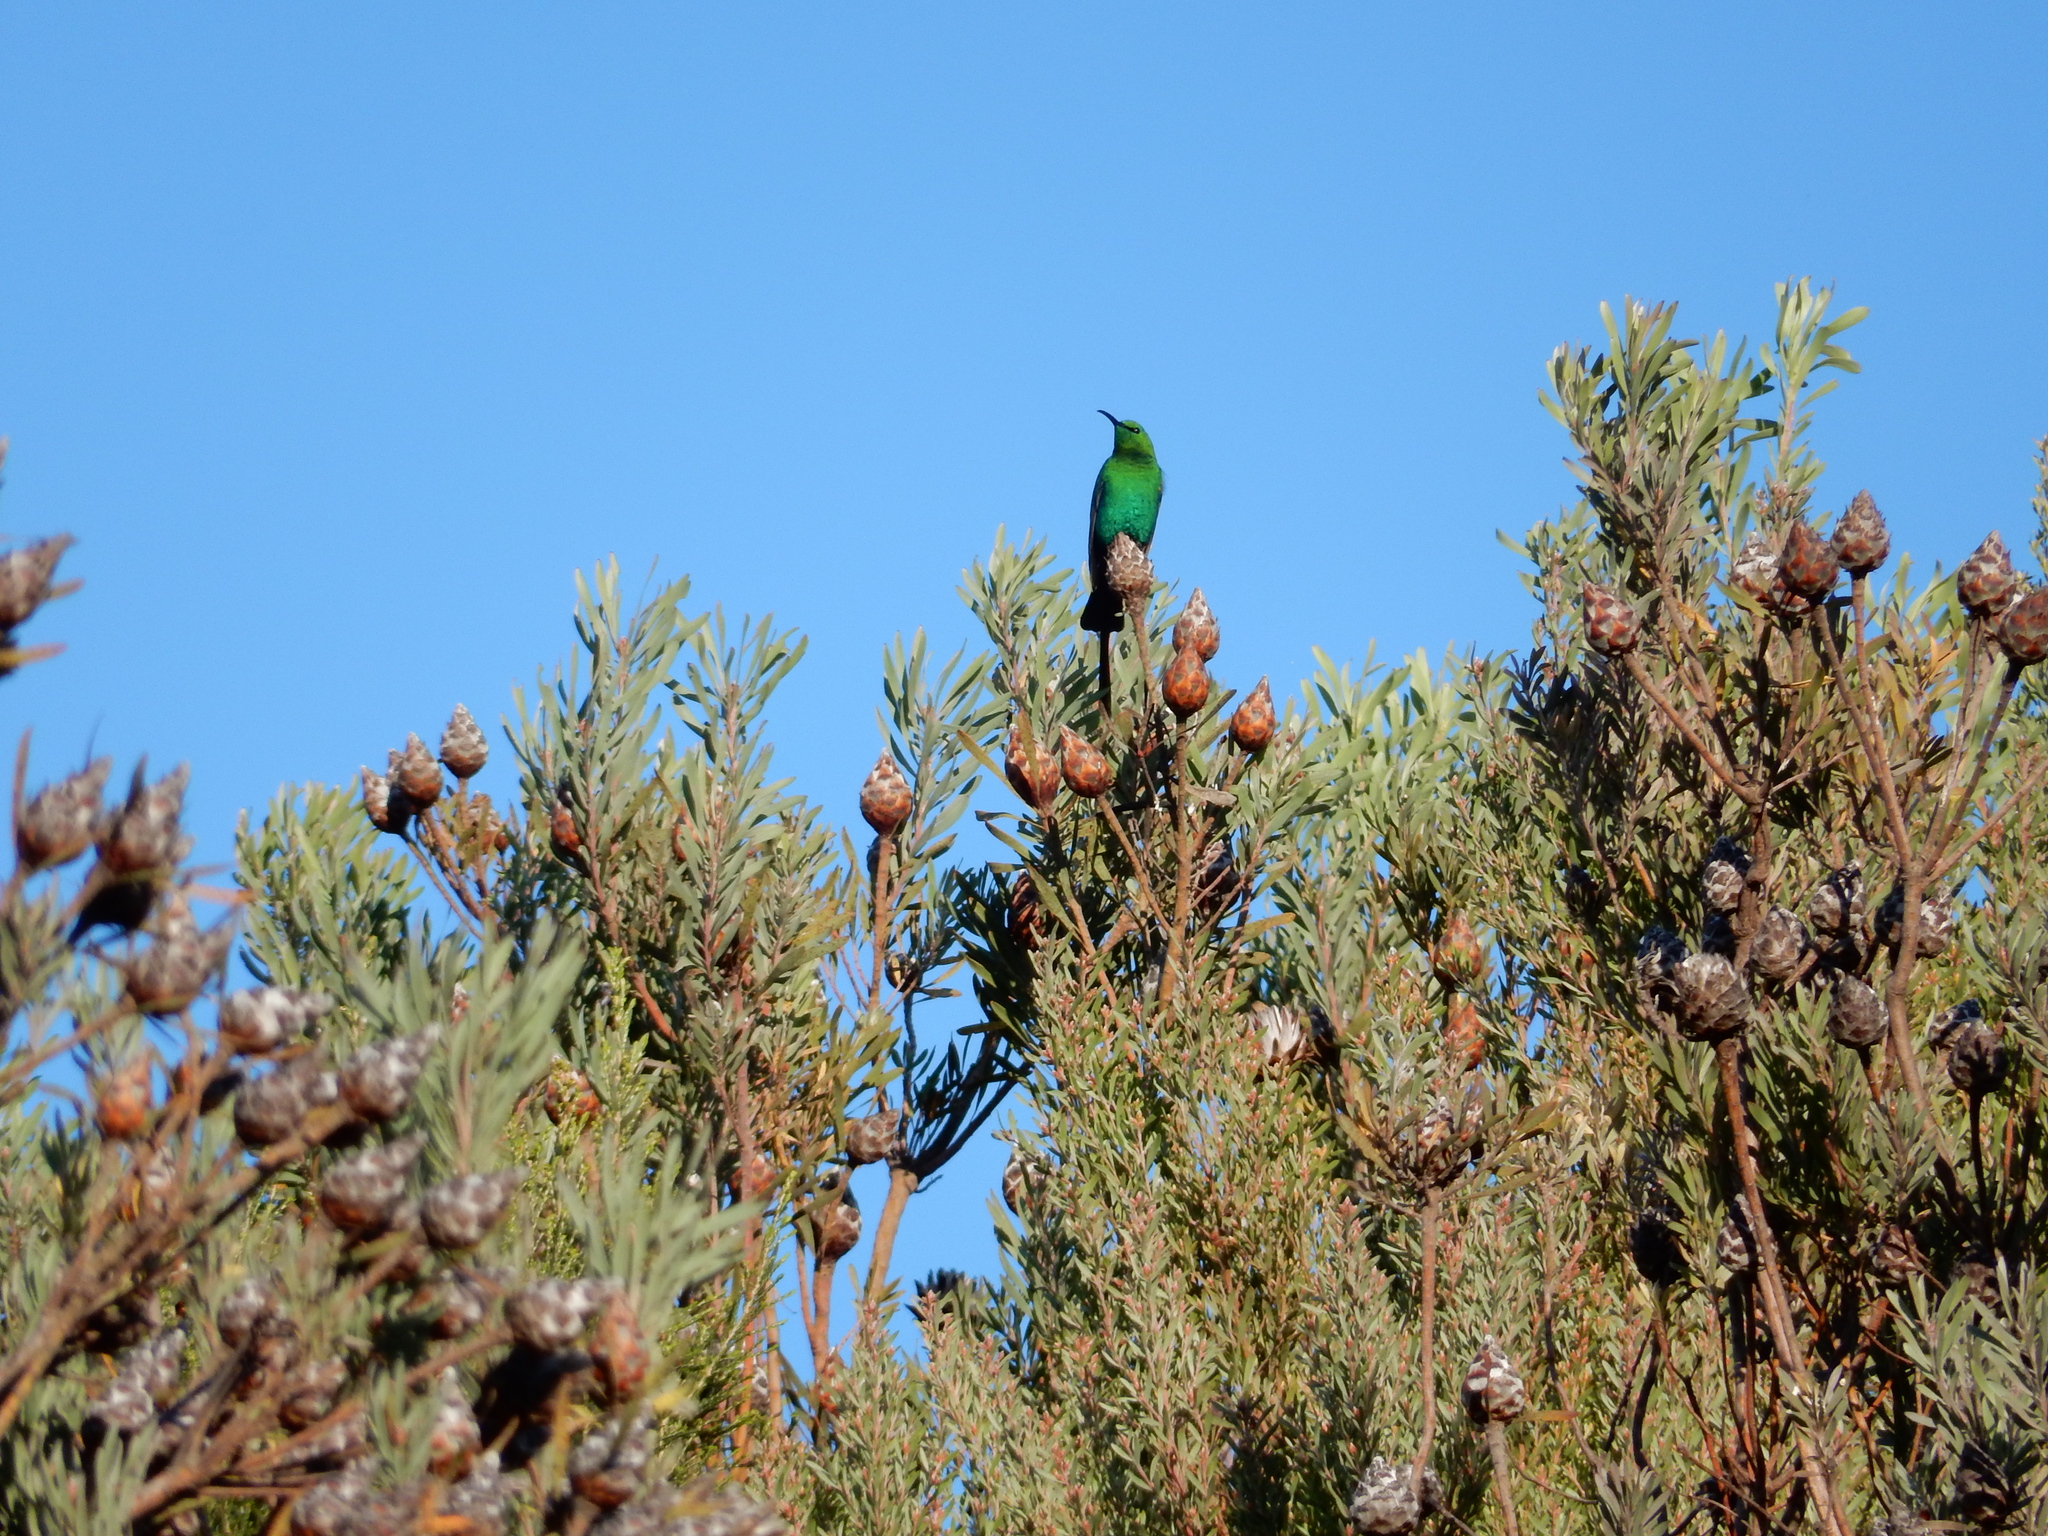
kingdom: Animalia
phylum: Chordata
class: Aves
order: Passeriformes
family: Nectariniidae
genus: Nectarinia
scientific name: Nectarinia famosa
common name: Malachite sunbird
